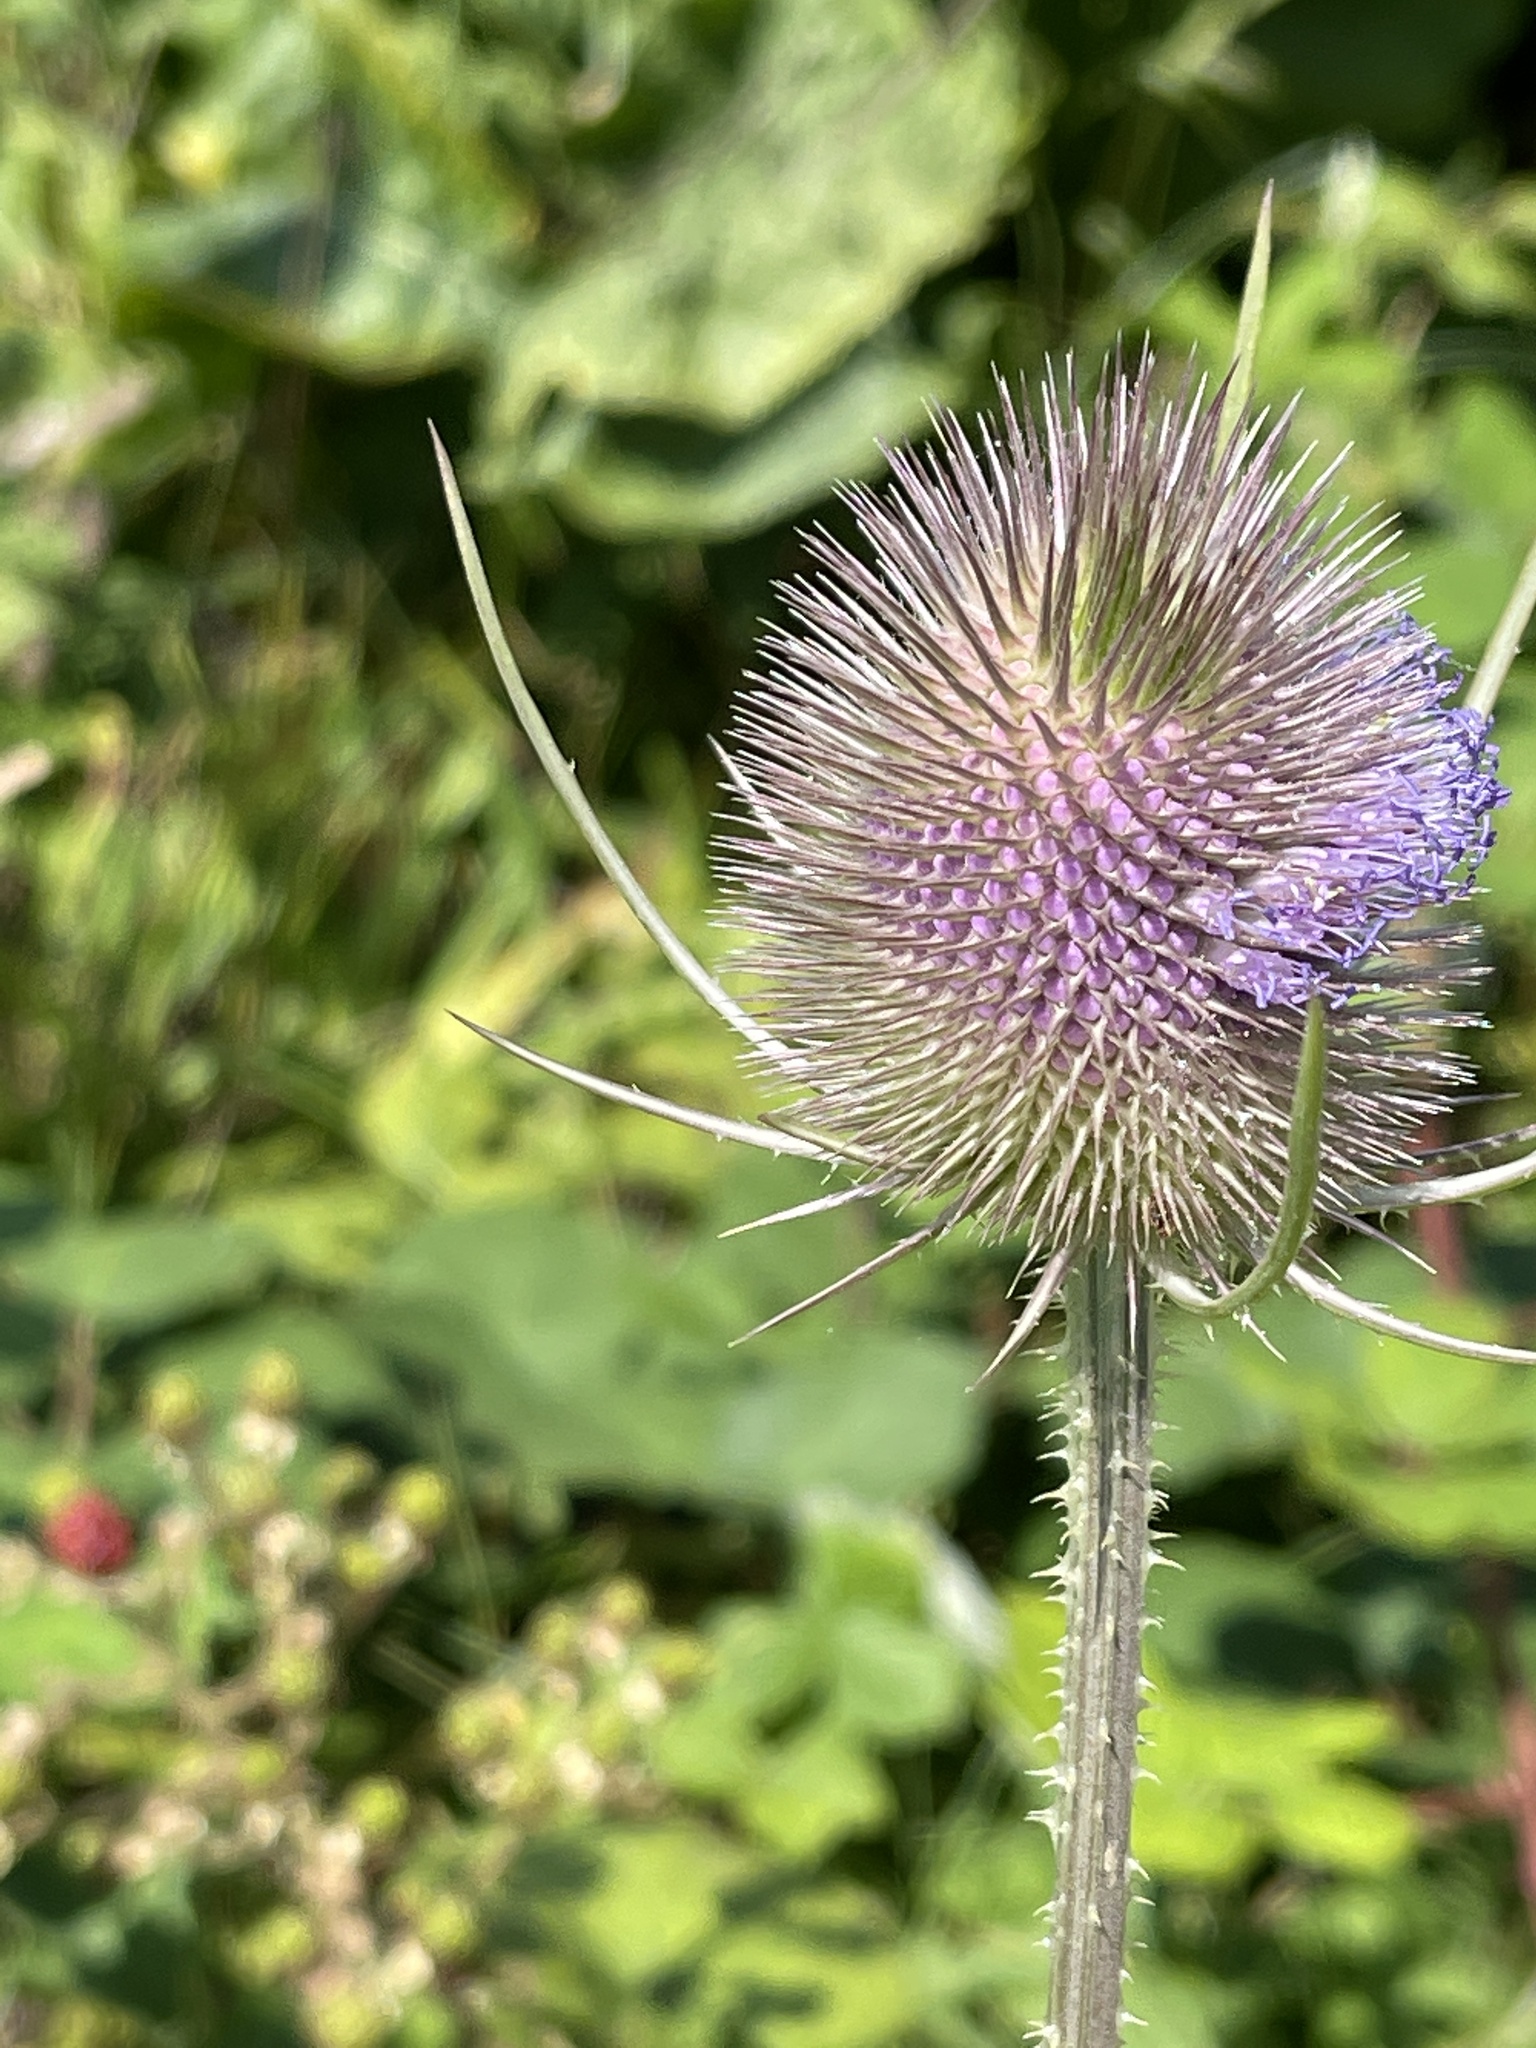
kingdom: Plantae
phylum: Tracheophyta
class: Magnoliopsida
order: Dipsacales
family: Caprifoliaceae
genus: Dipsacus
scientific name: Dipsacus fullonum
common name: Teasel
